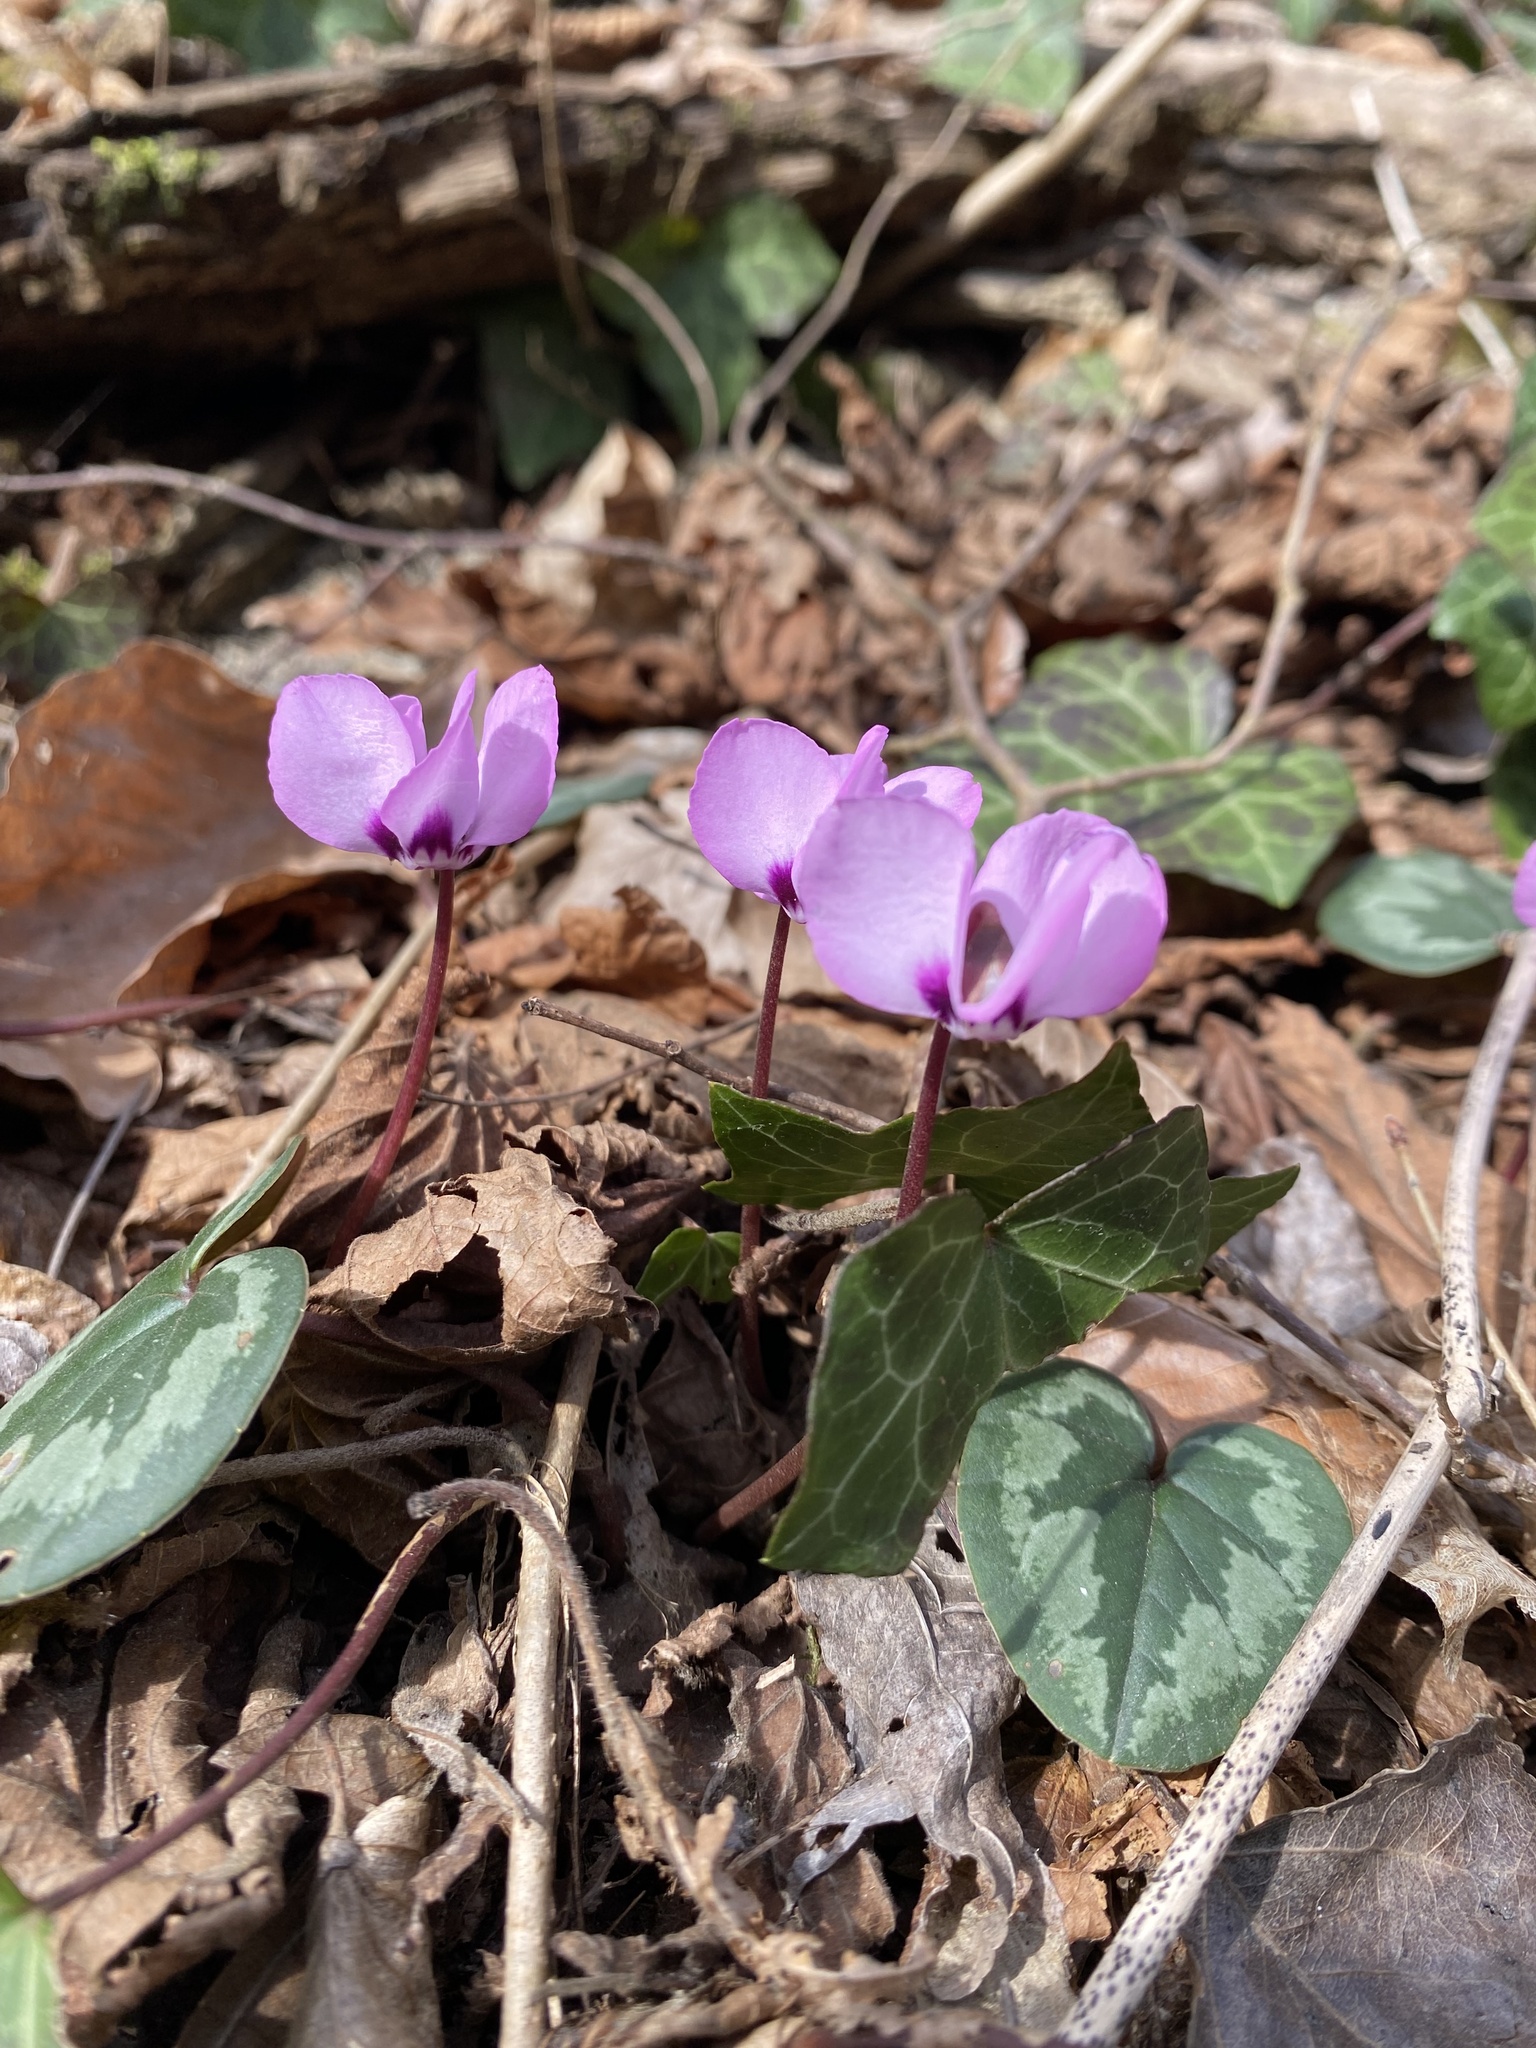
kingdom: Plantae
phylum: Tracheophyta
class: Magnoliopsida
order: Ericales
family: Primulaceae
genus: Cyclamen
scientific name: Cyclamen coum
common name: Eastern sowbread
